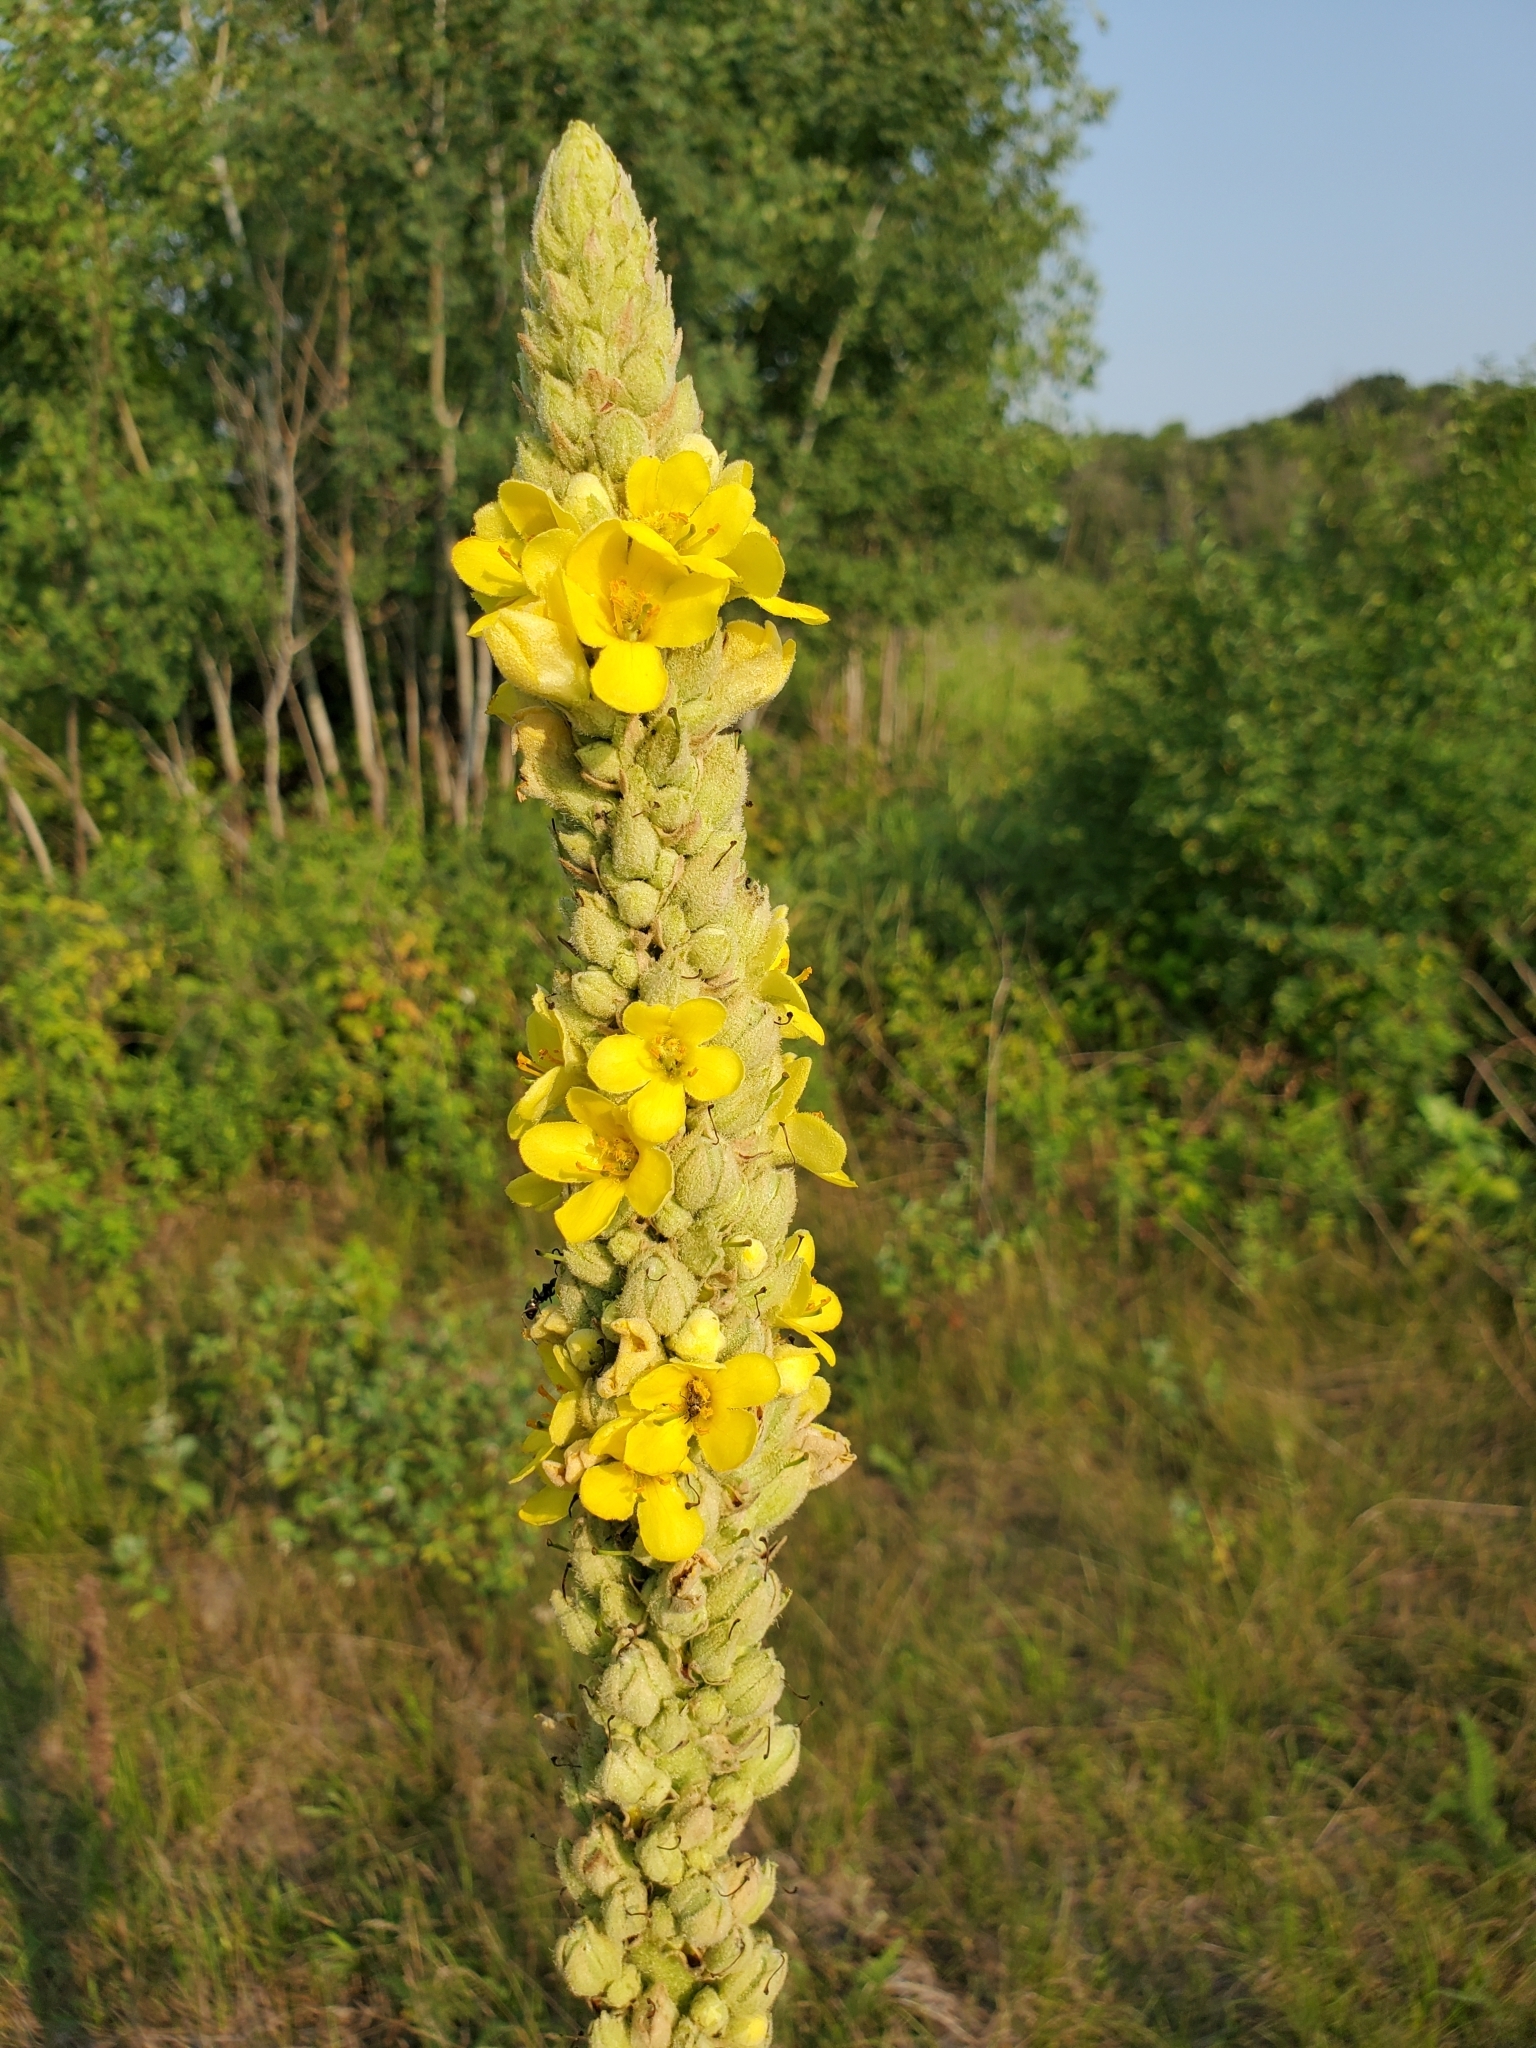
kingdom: Plantae
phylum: Tracheophyta
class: Magnoliopsida
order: Lamiales
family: Scrophulariaceae
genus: Verbascum
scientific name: Verbascum thapsus
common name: Common mullein
